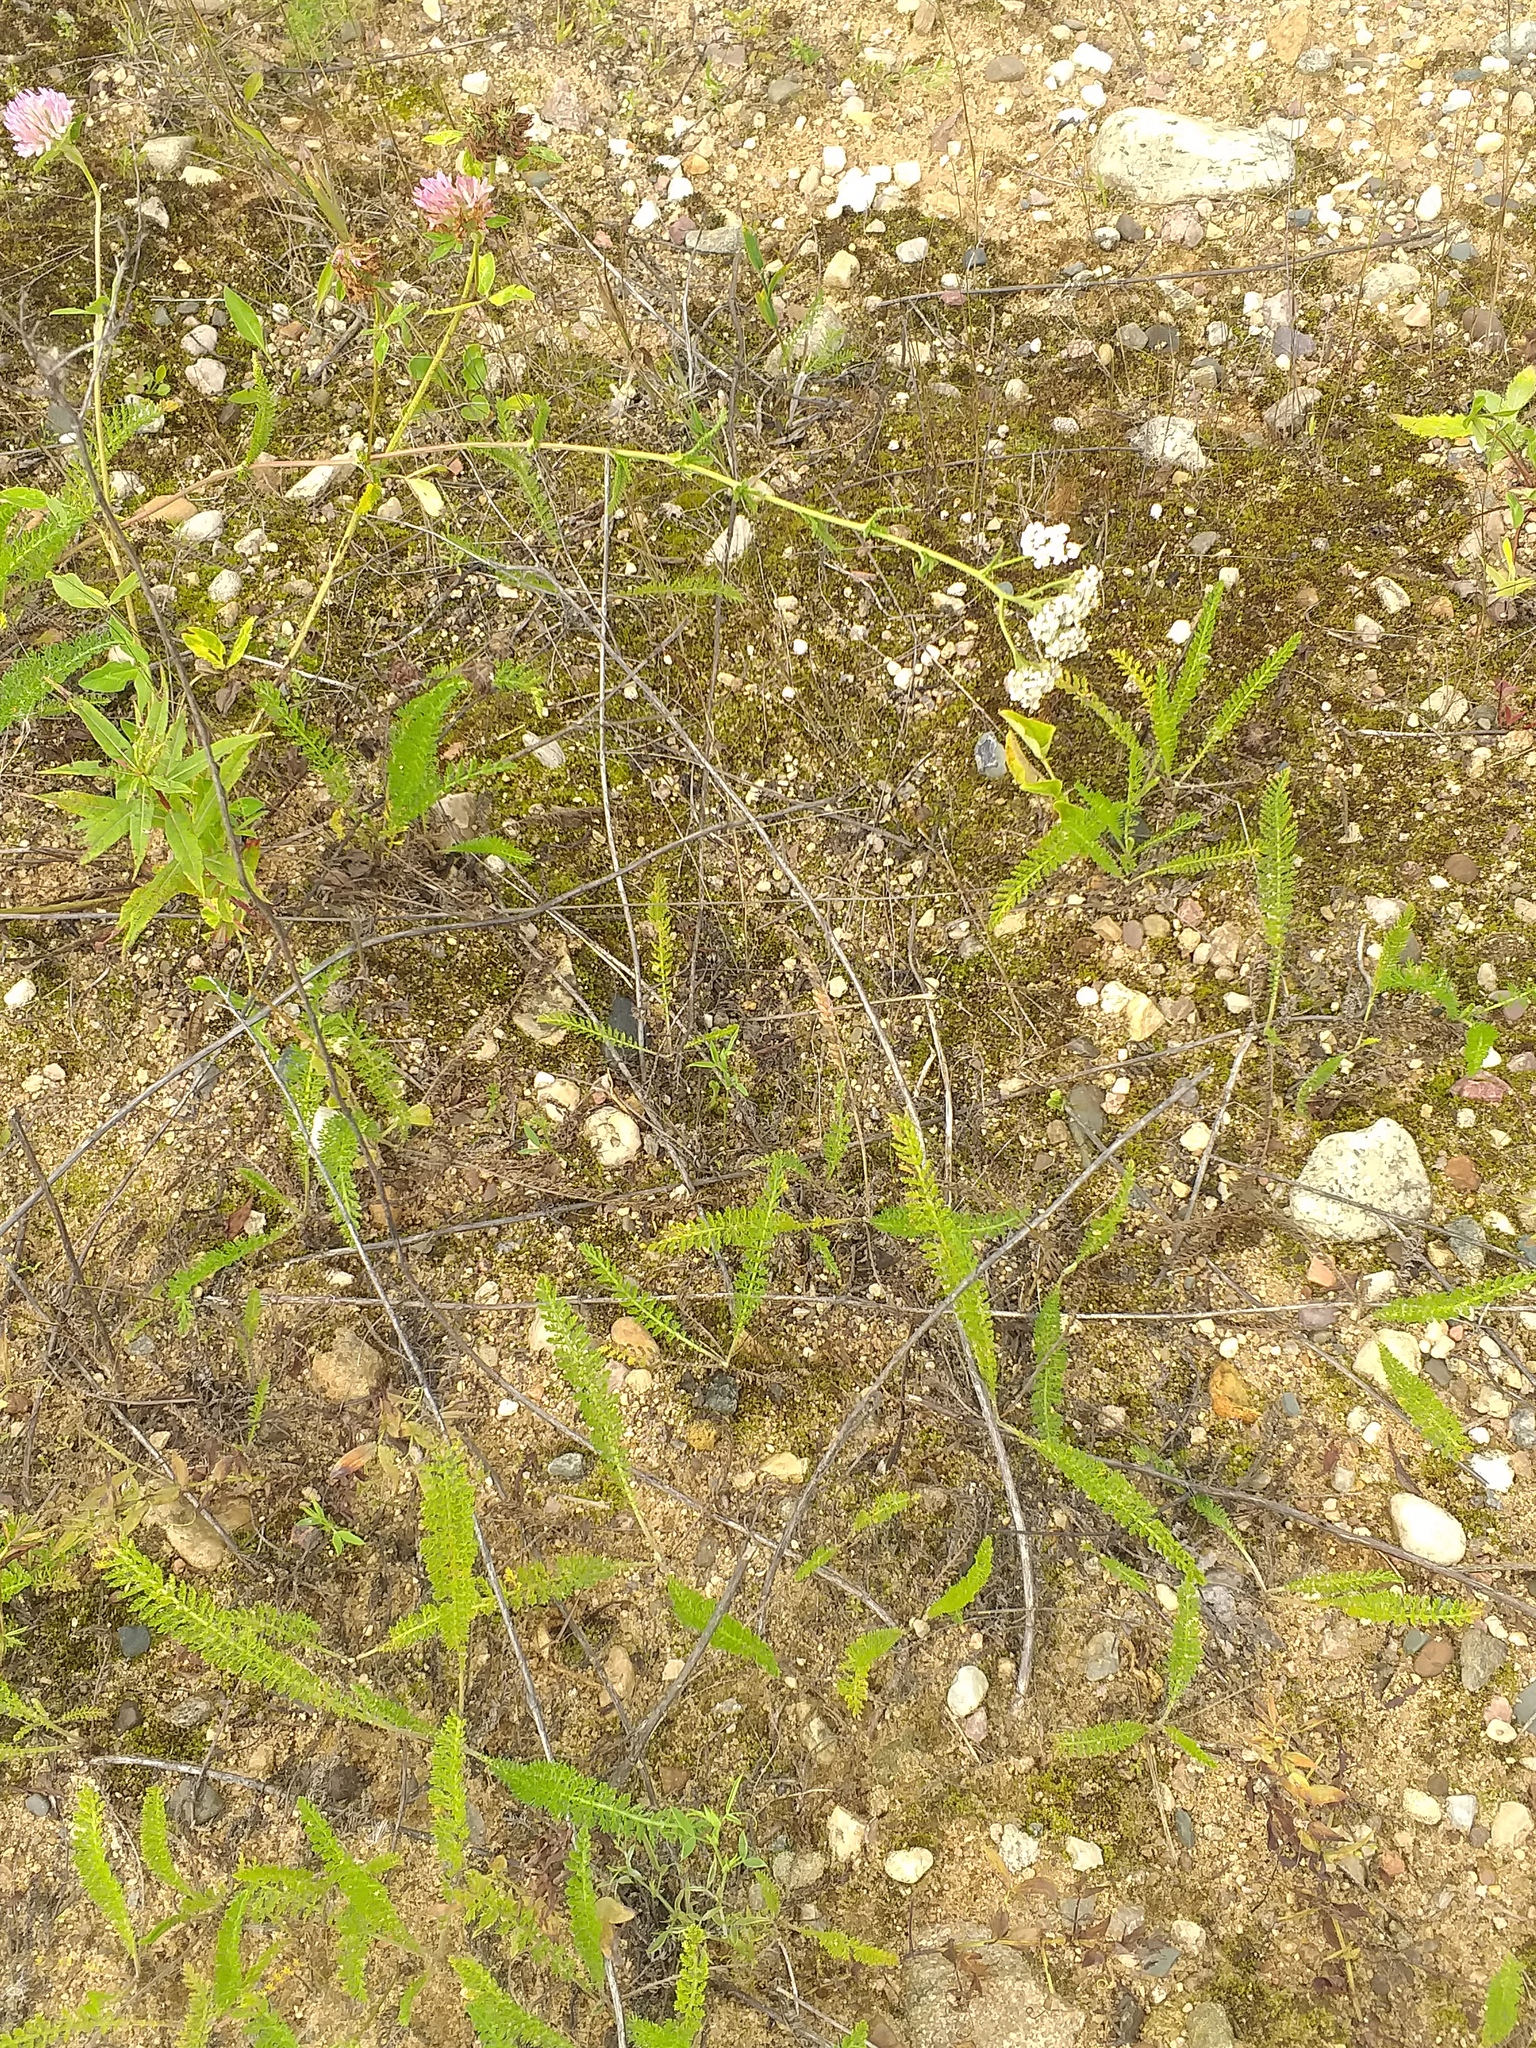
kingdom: Plantae
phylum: Tracheophyta
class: Magnoliopsida
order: Asterales
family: Asteraceae
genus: Achillea
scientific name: Achillea millefolium
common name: Yarrow
